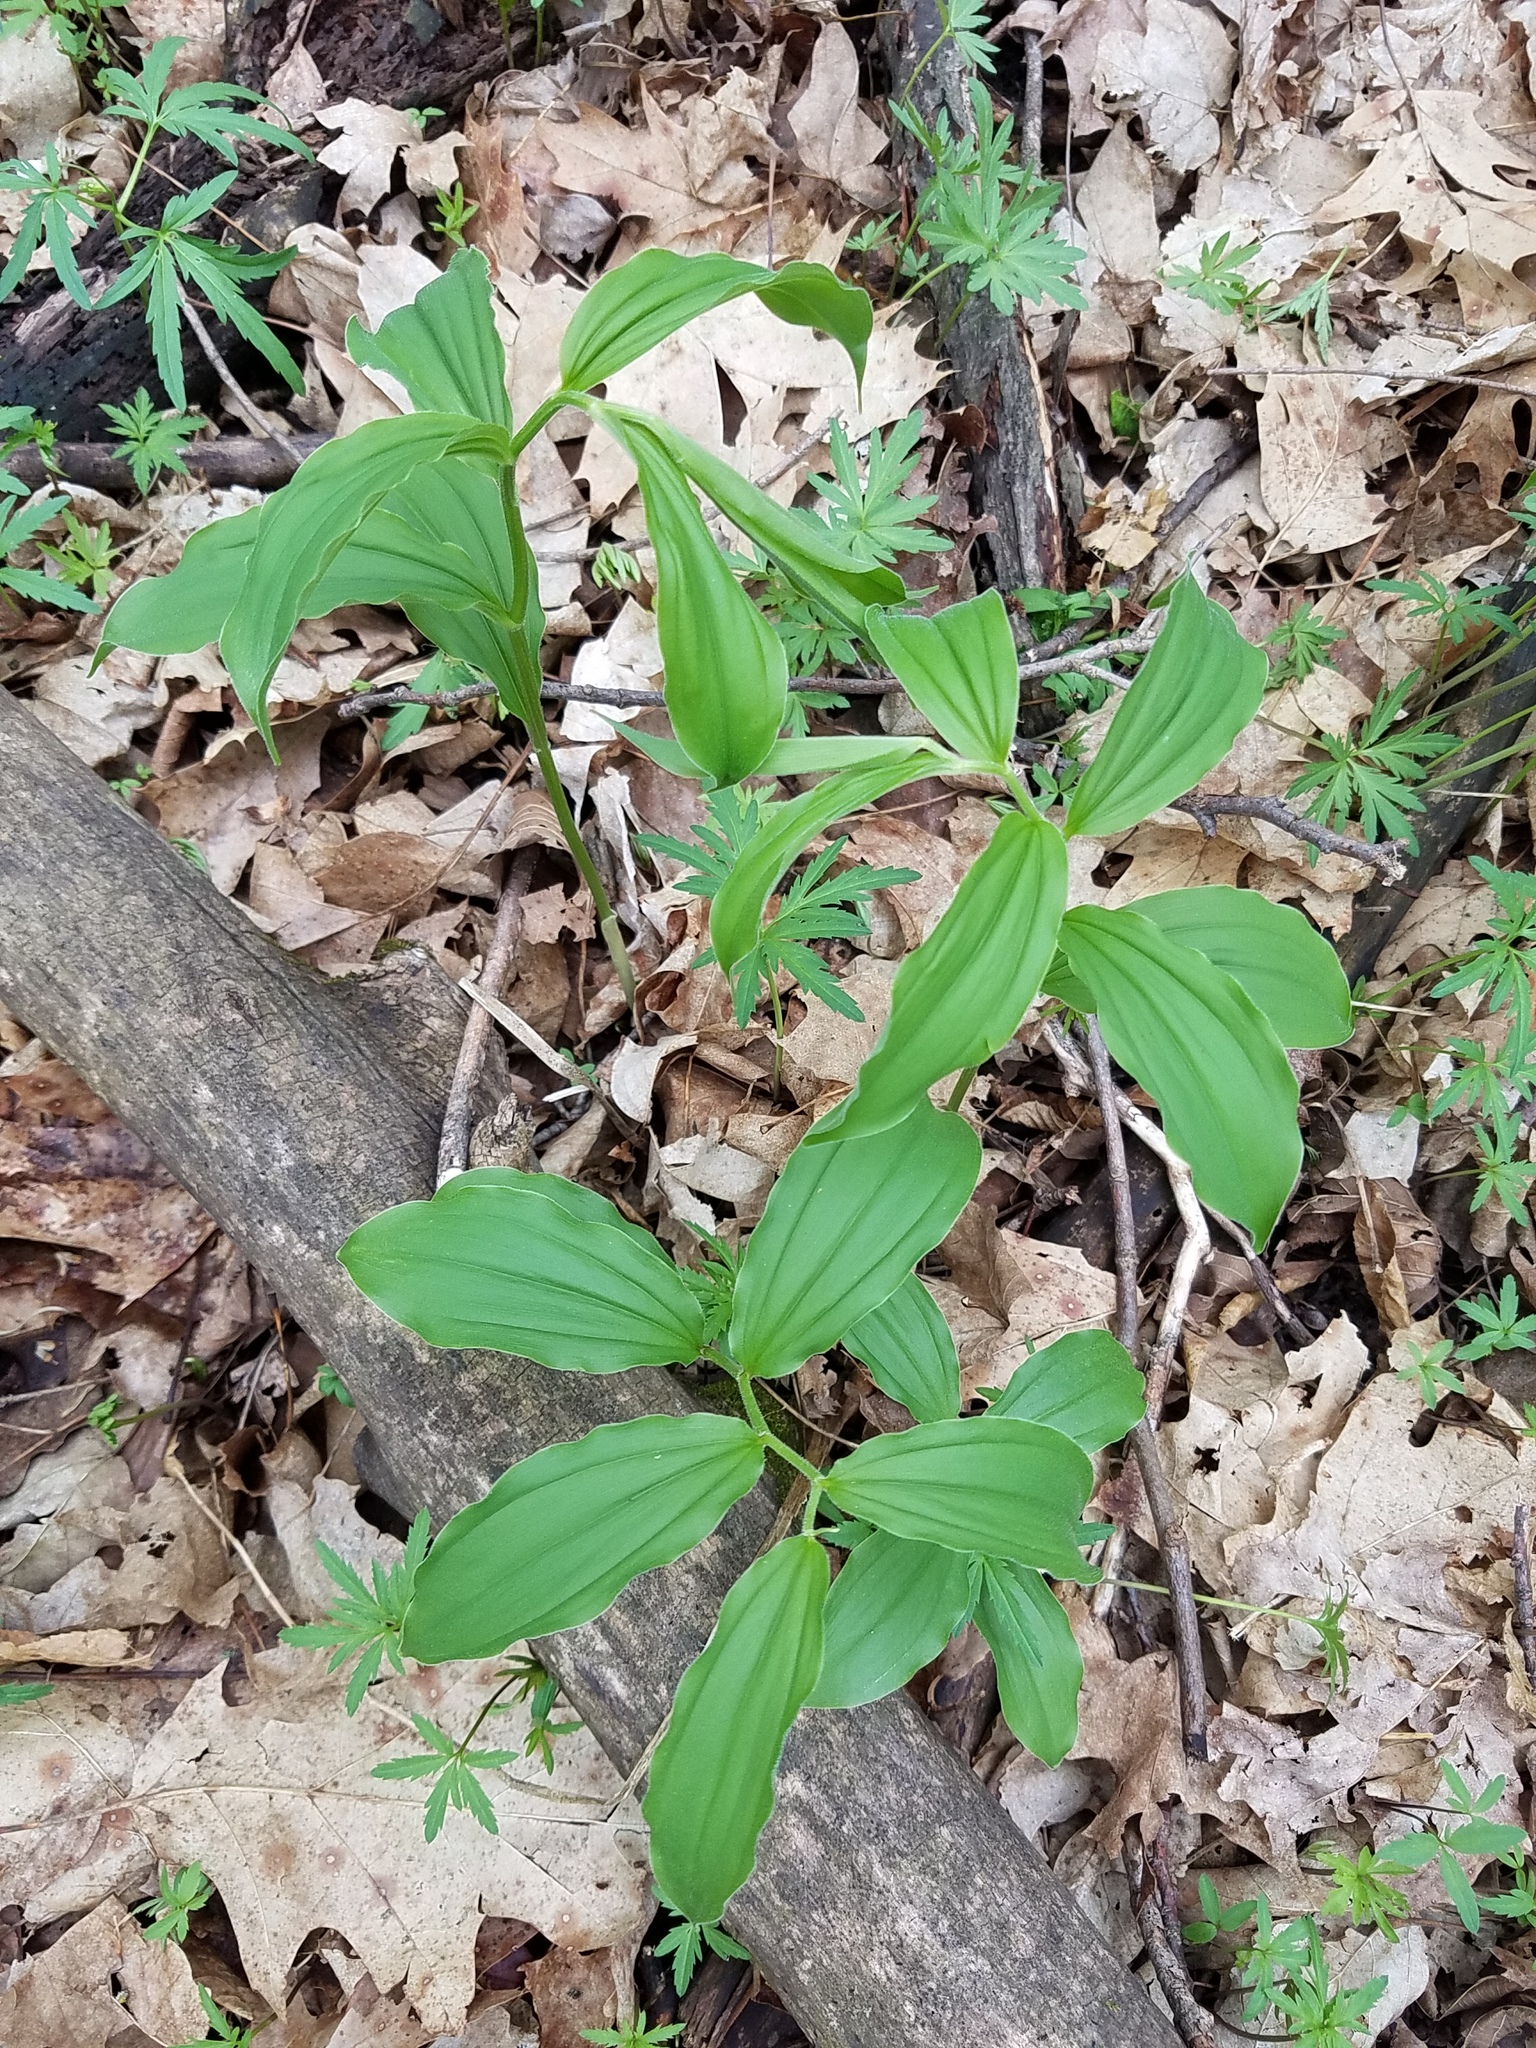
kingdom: Plantae
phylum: Tracheophyta
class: Liliopsida
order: Asparagales
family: Asparagaceae
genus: Maianthemum
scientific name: Maianthemum racemosum
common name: False spikenard
